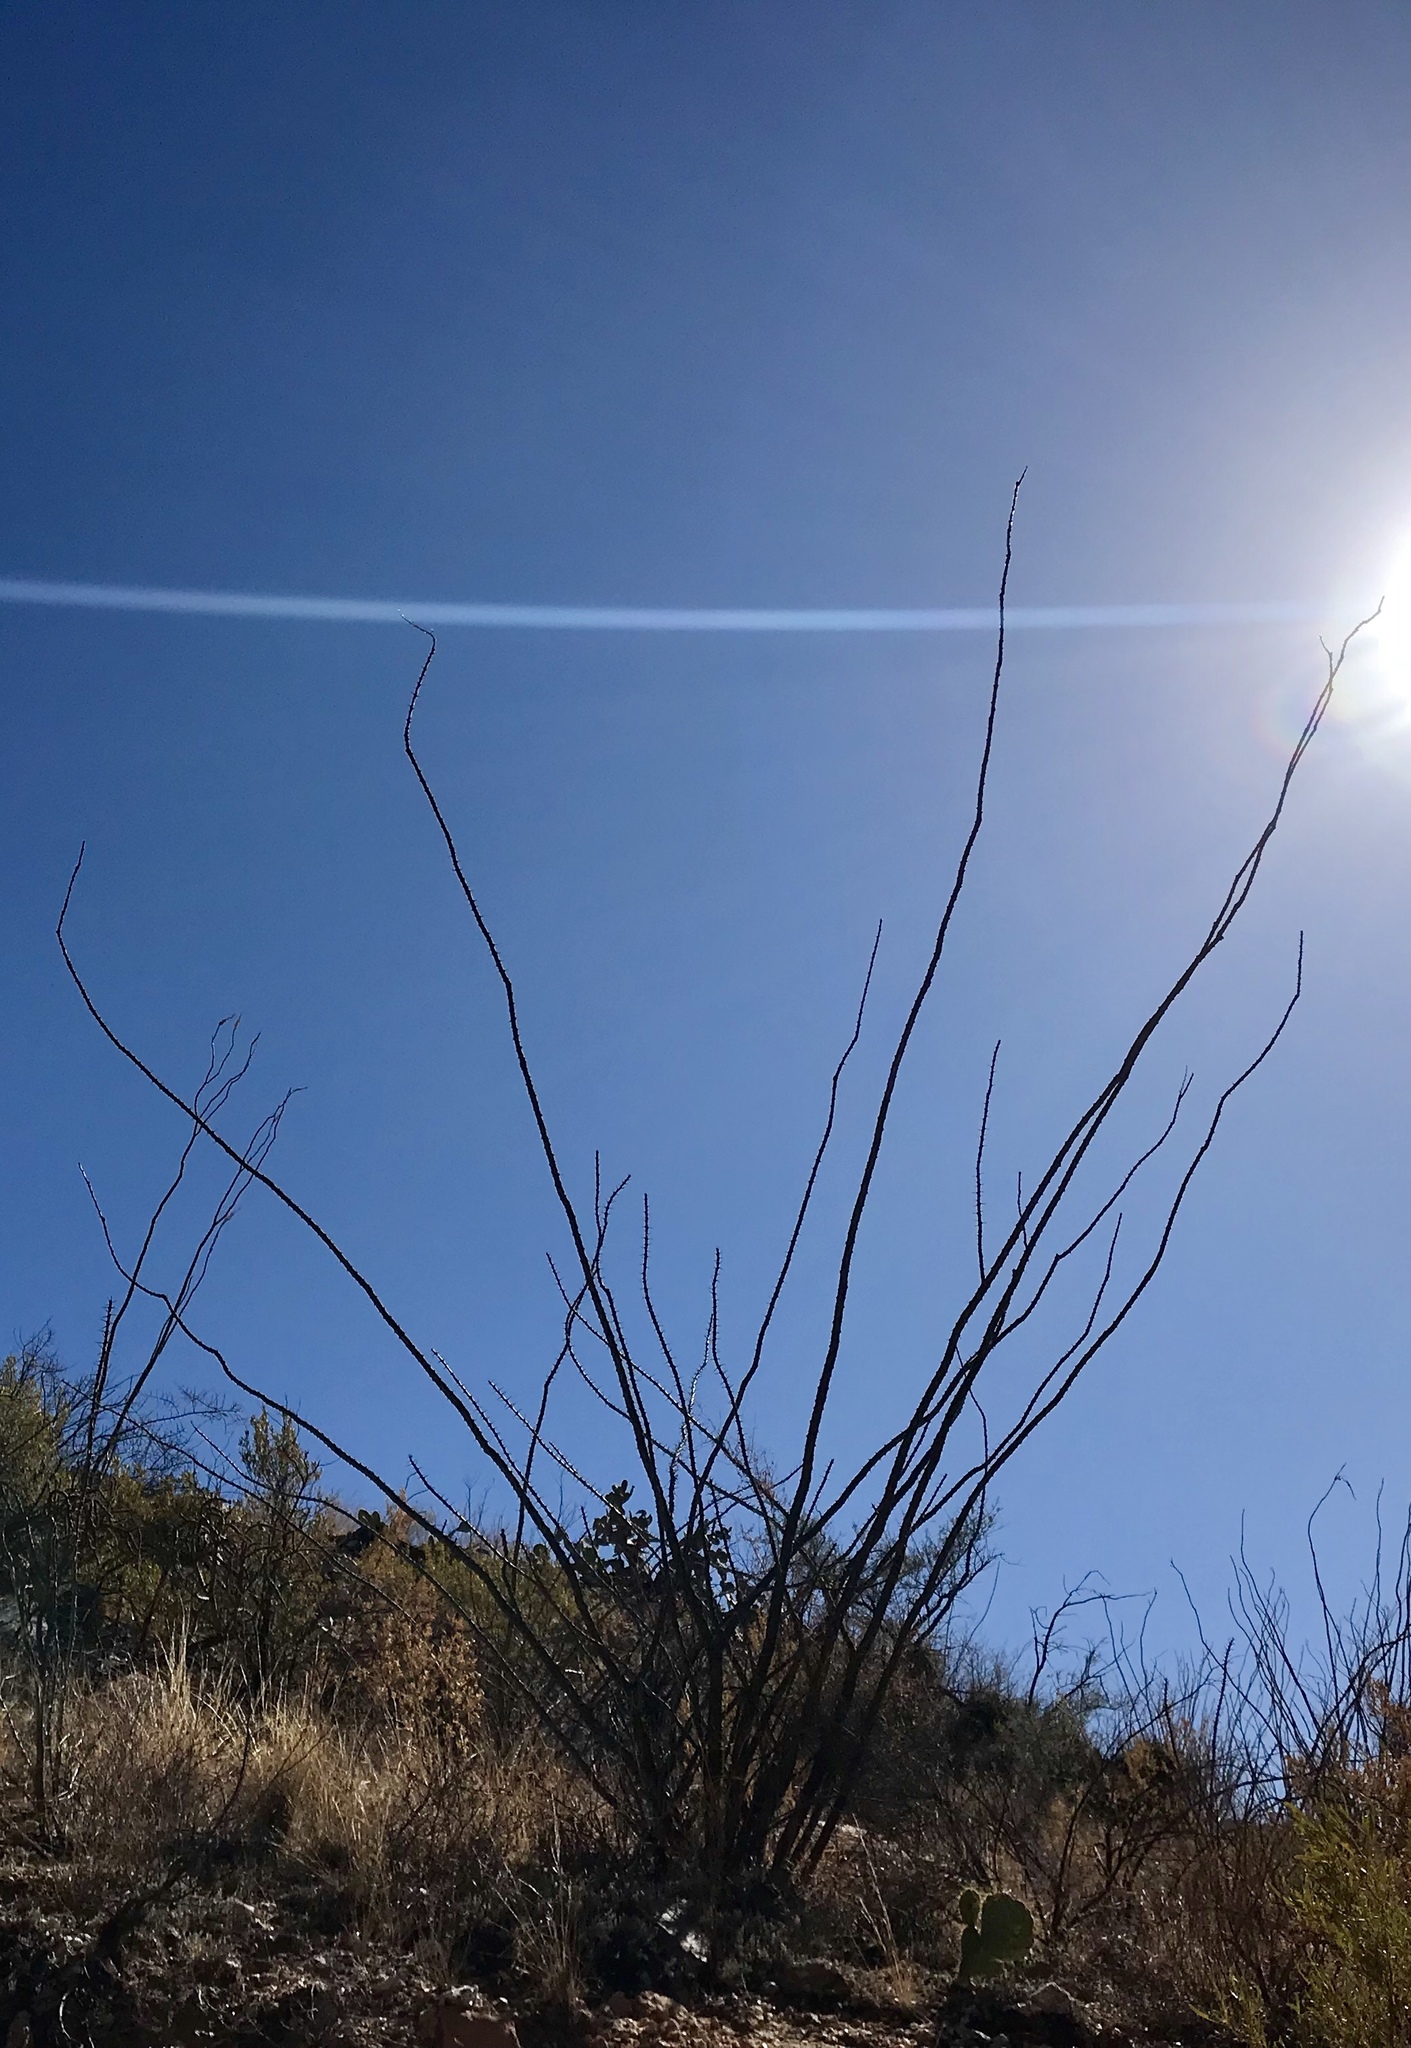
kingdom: Plantae
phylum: Tracheophyta
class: Magnoliopsida
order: Ericales
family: Fouquieriaceae
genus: Fouquieria
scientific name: Fouquieria splendens
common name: Vine-cactus
